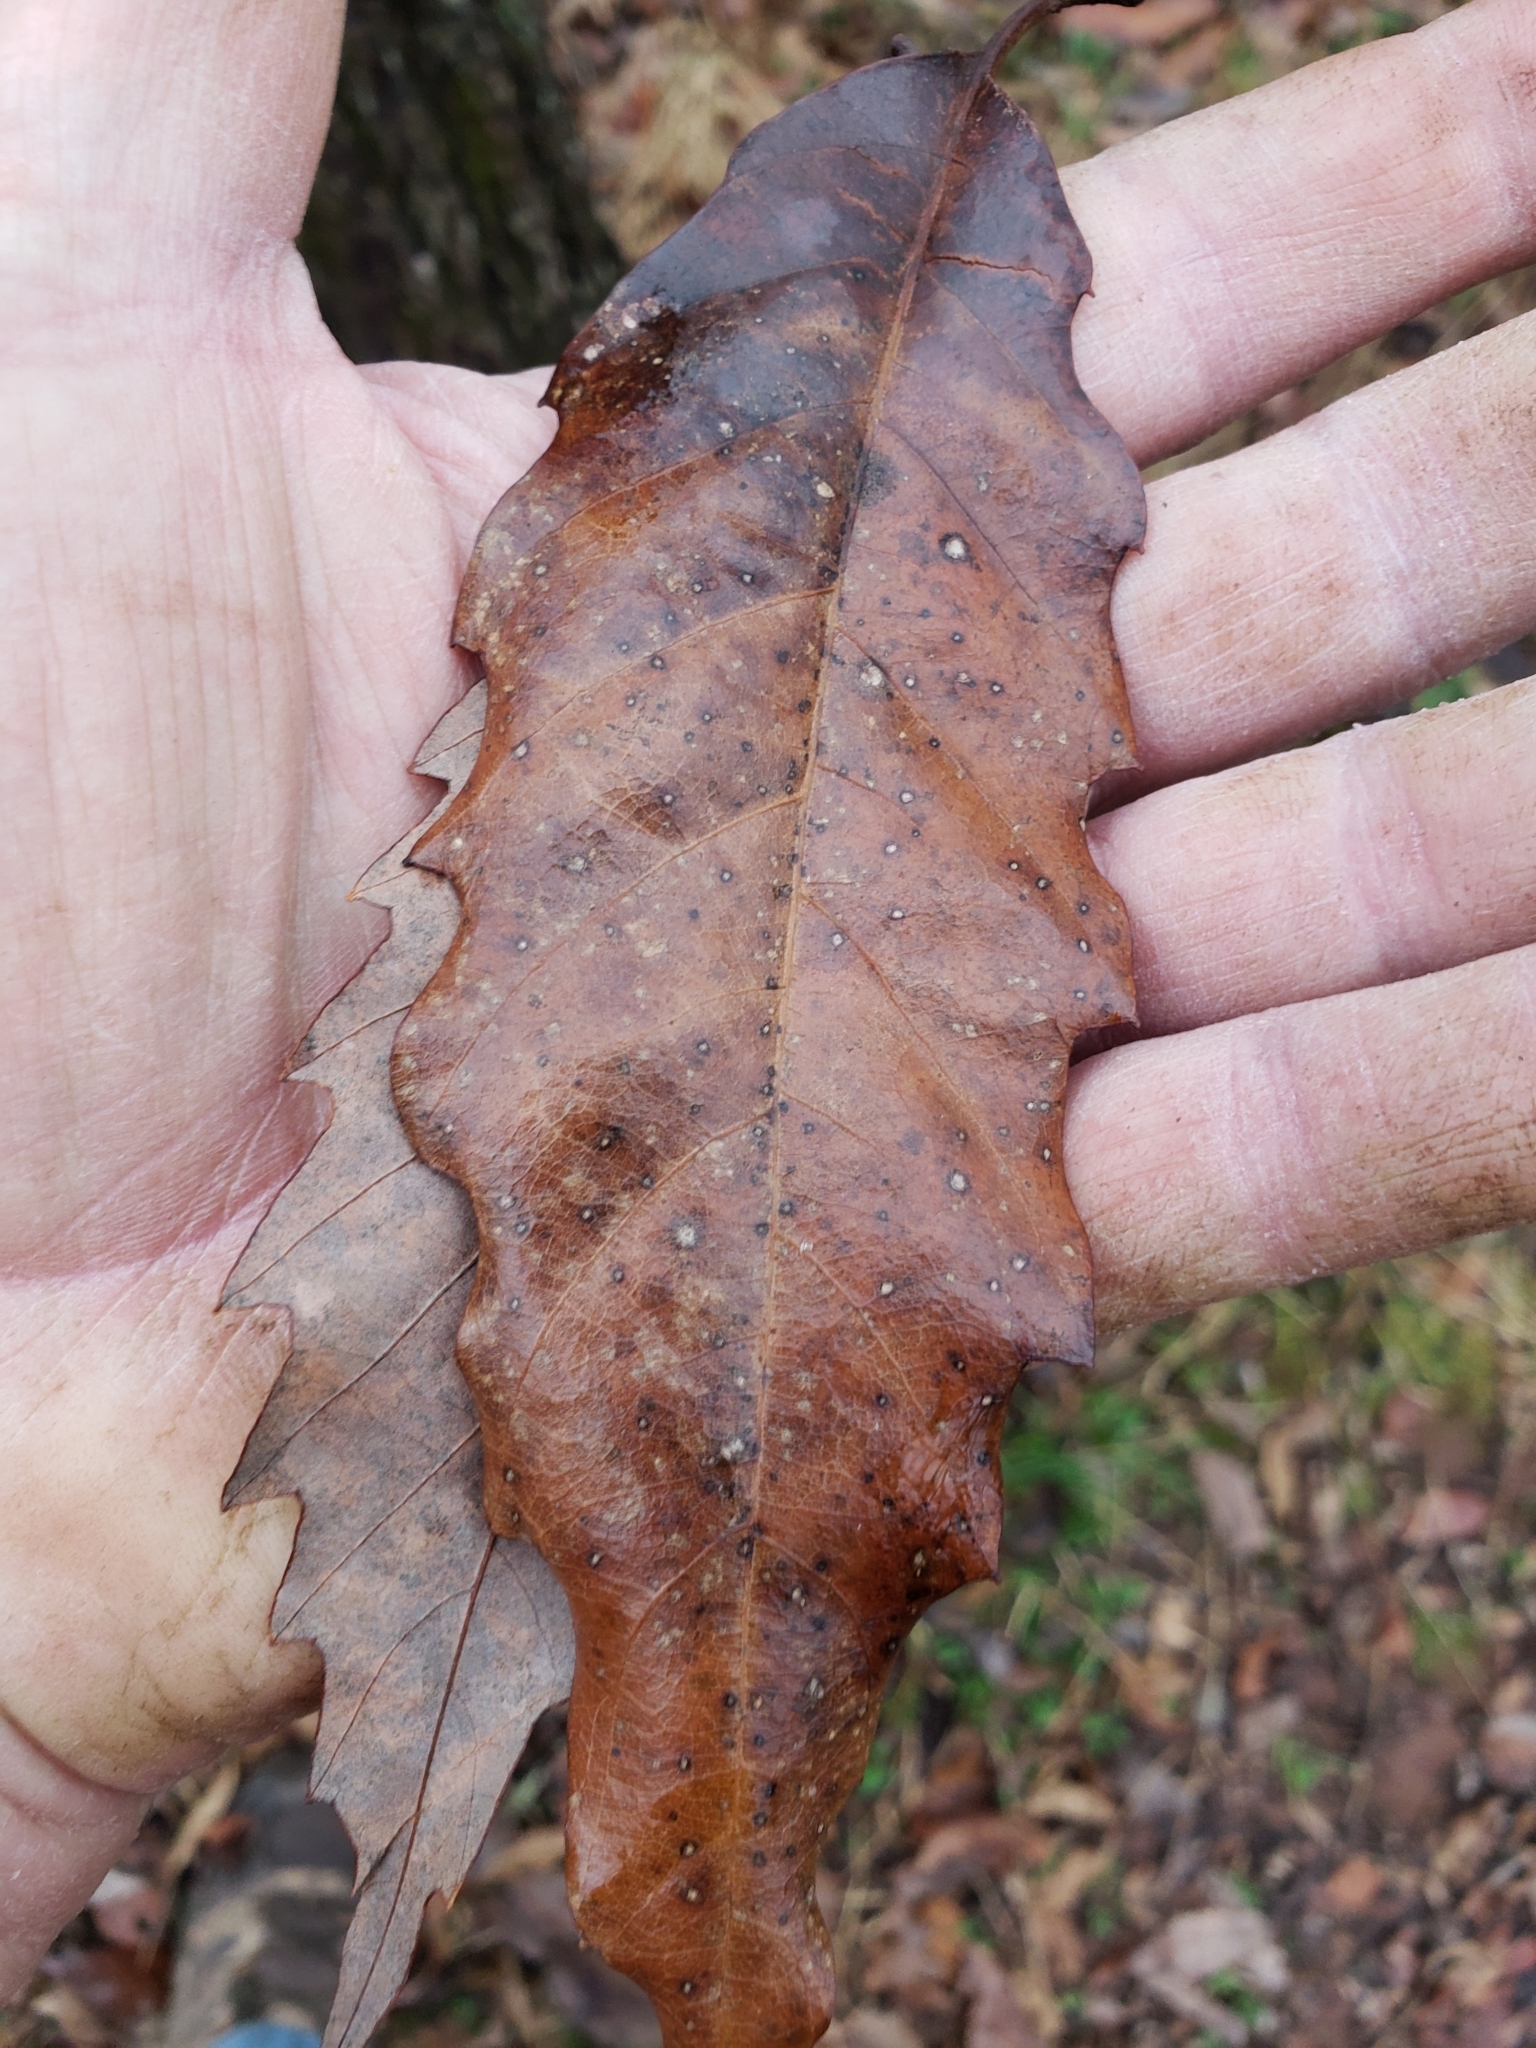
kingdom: Plantae
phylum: Tracheophyta
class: Magnoliopsida
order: Fagales
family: Fagaceae
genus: Quercus
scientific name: Quercus muehlenbergii
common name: Chinkapin oak
